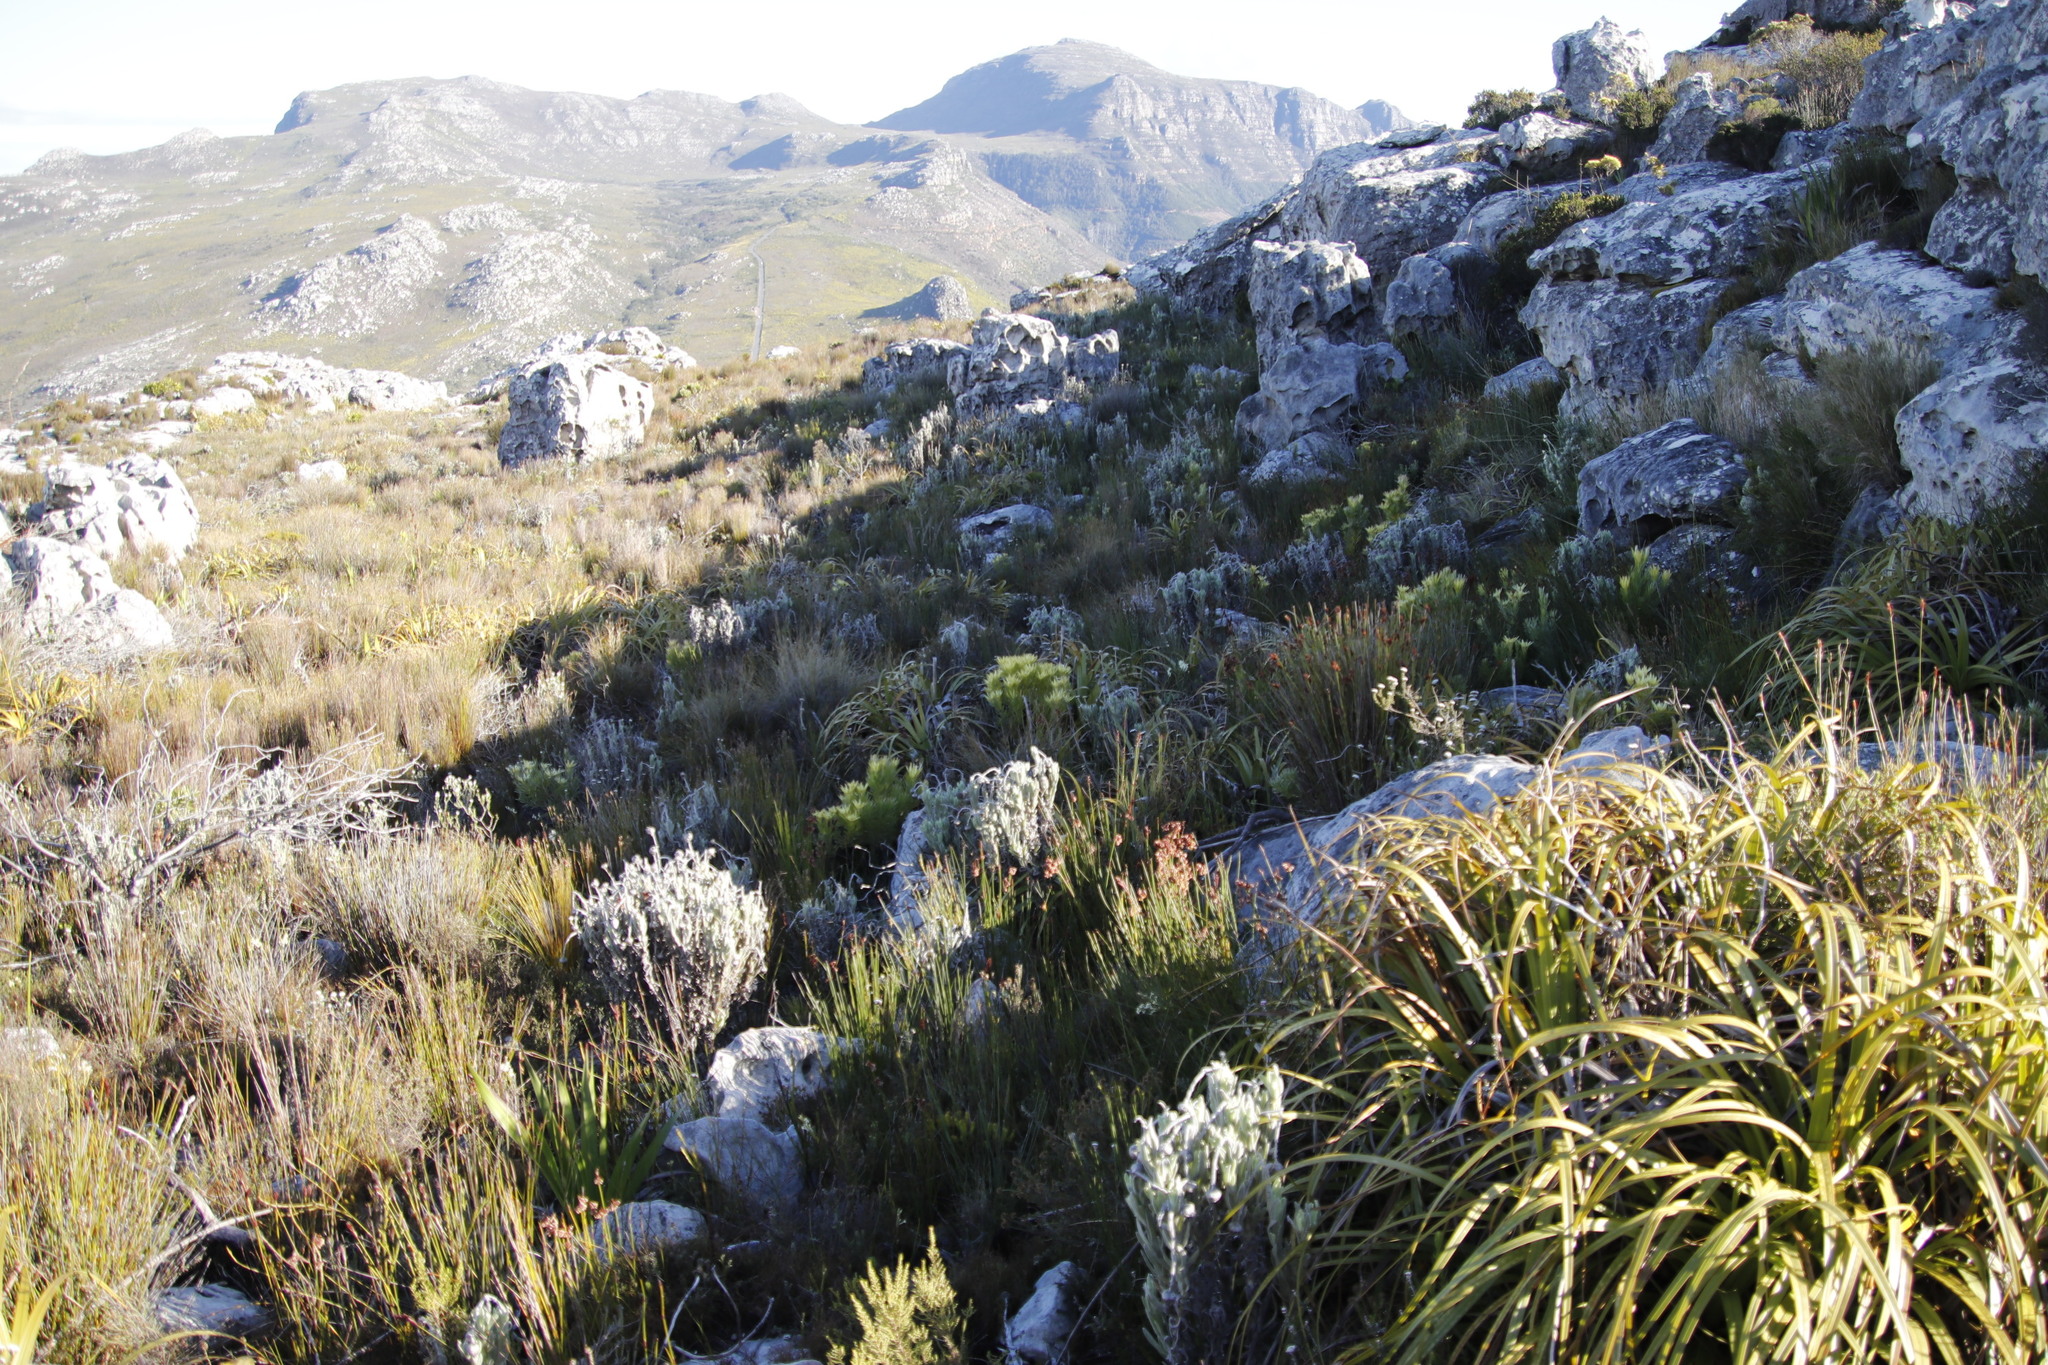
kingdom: Plantae
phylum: Tracheophyta
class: Magnoliopsida
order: Asterales
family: Asteraceae
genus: Syncarpha
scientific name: Syncarpha vestita
